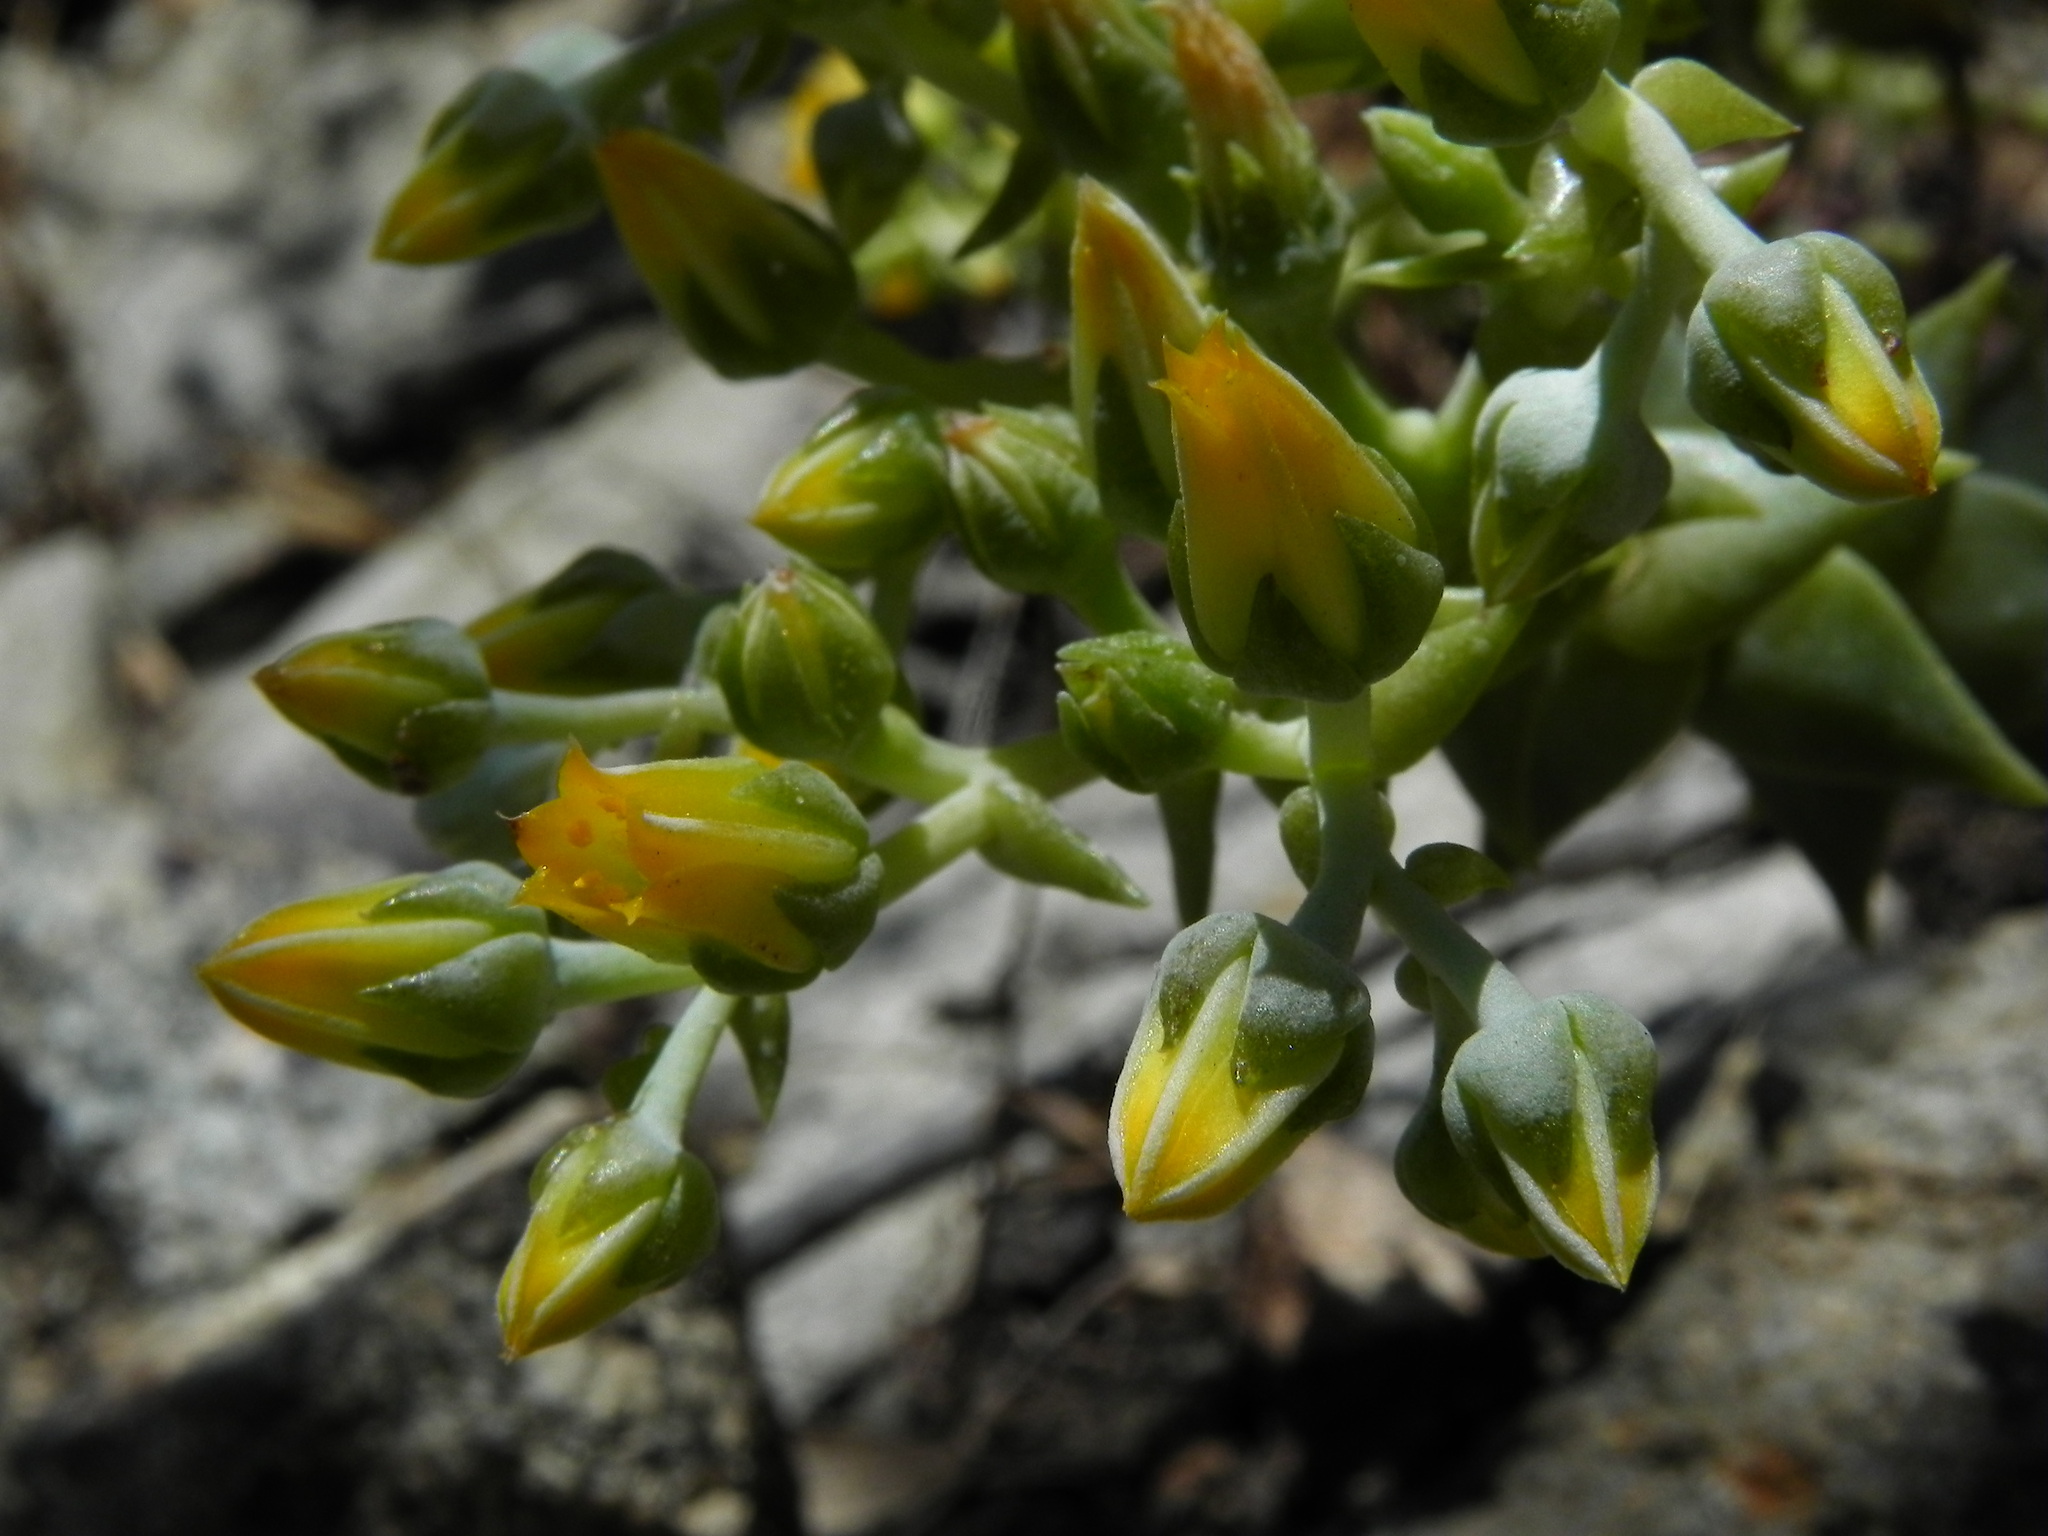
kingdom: Plantae
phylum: Tracheophyta
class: Magnoliopsida
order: Saxifragales
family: Crassulaceae
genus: Dudleya
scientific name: Dudleya cymosa
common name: Canyon dudleya
